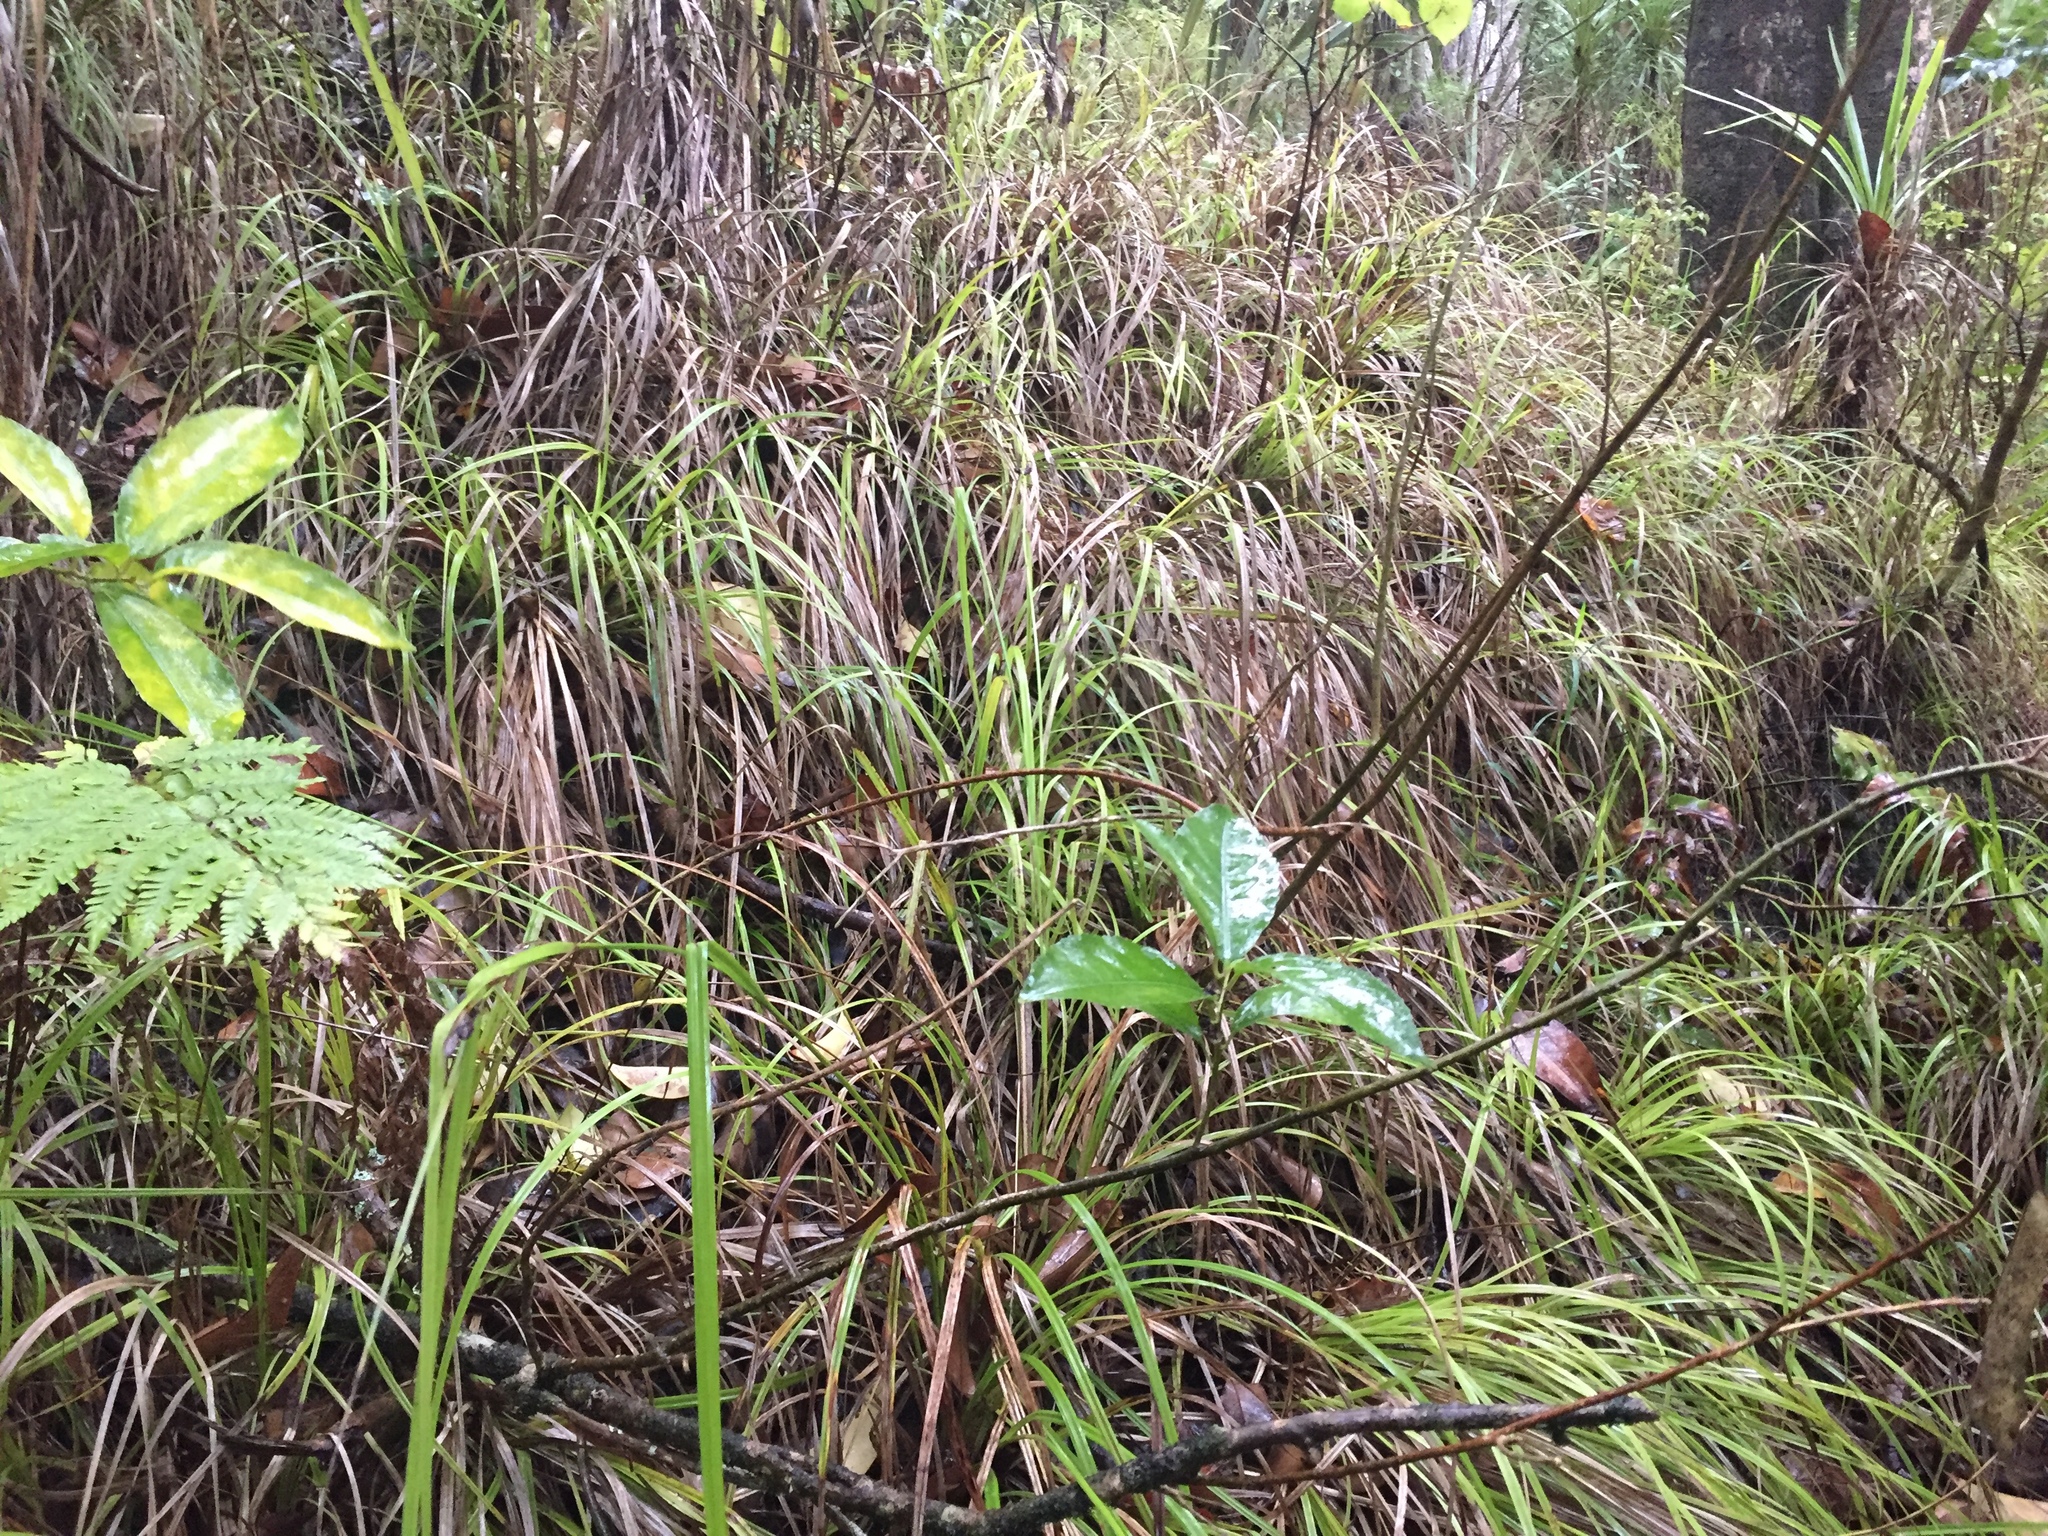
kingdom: Plantae
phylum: Tracheophyta
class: Liliopsida
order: Poales
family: Cyperaceae
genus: Carex
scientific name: Carex uncinata
